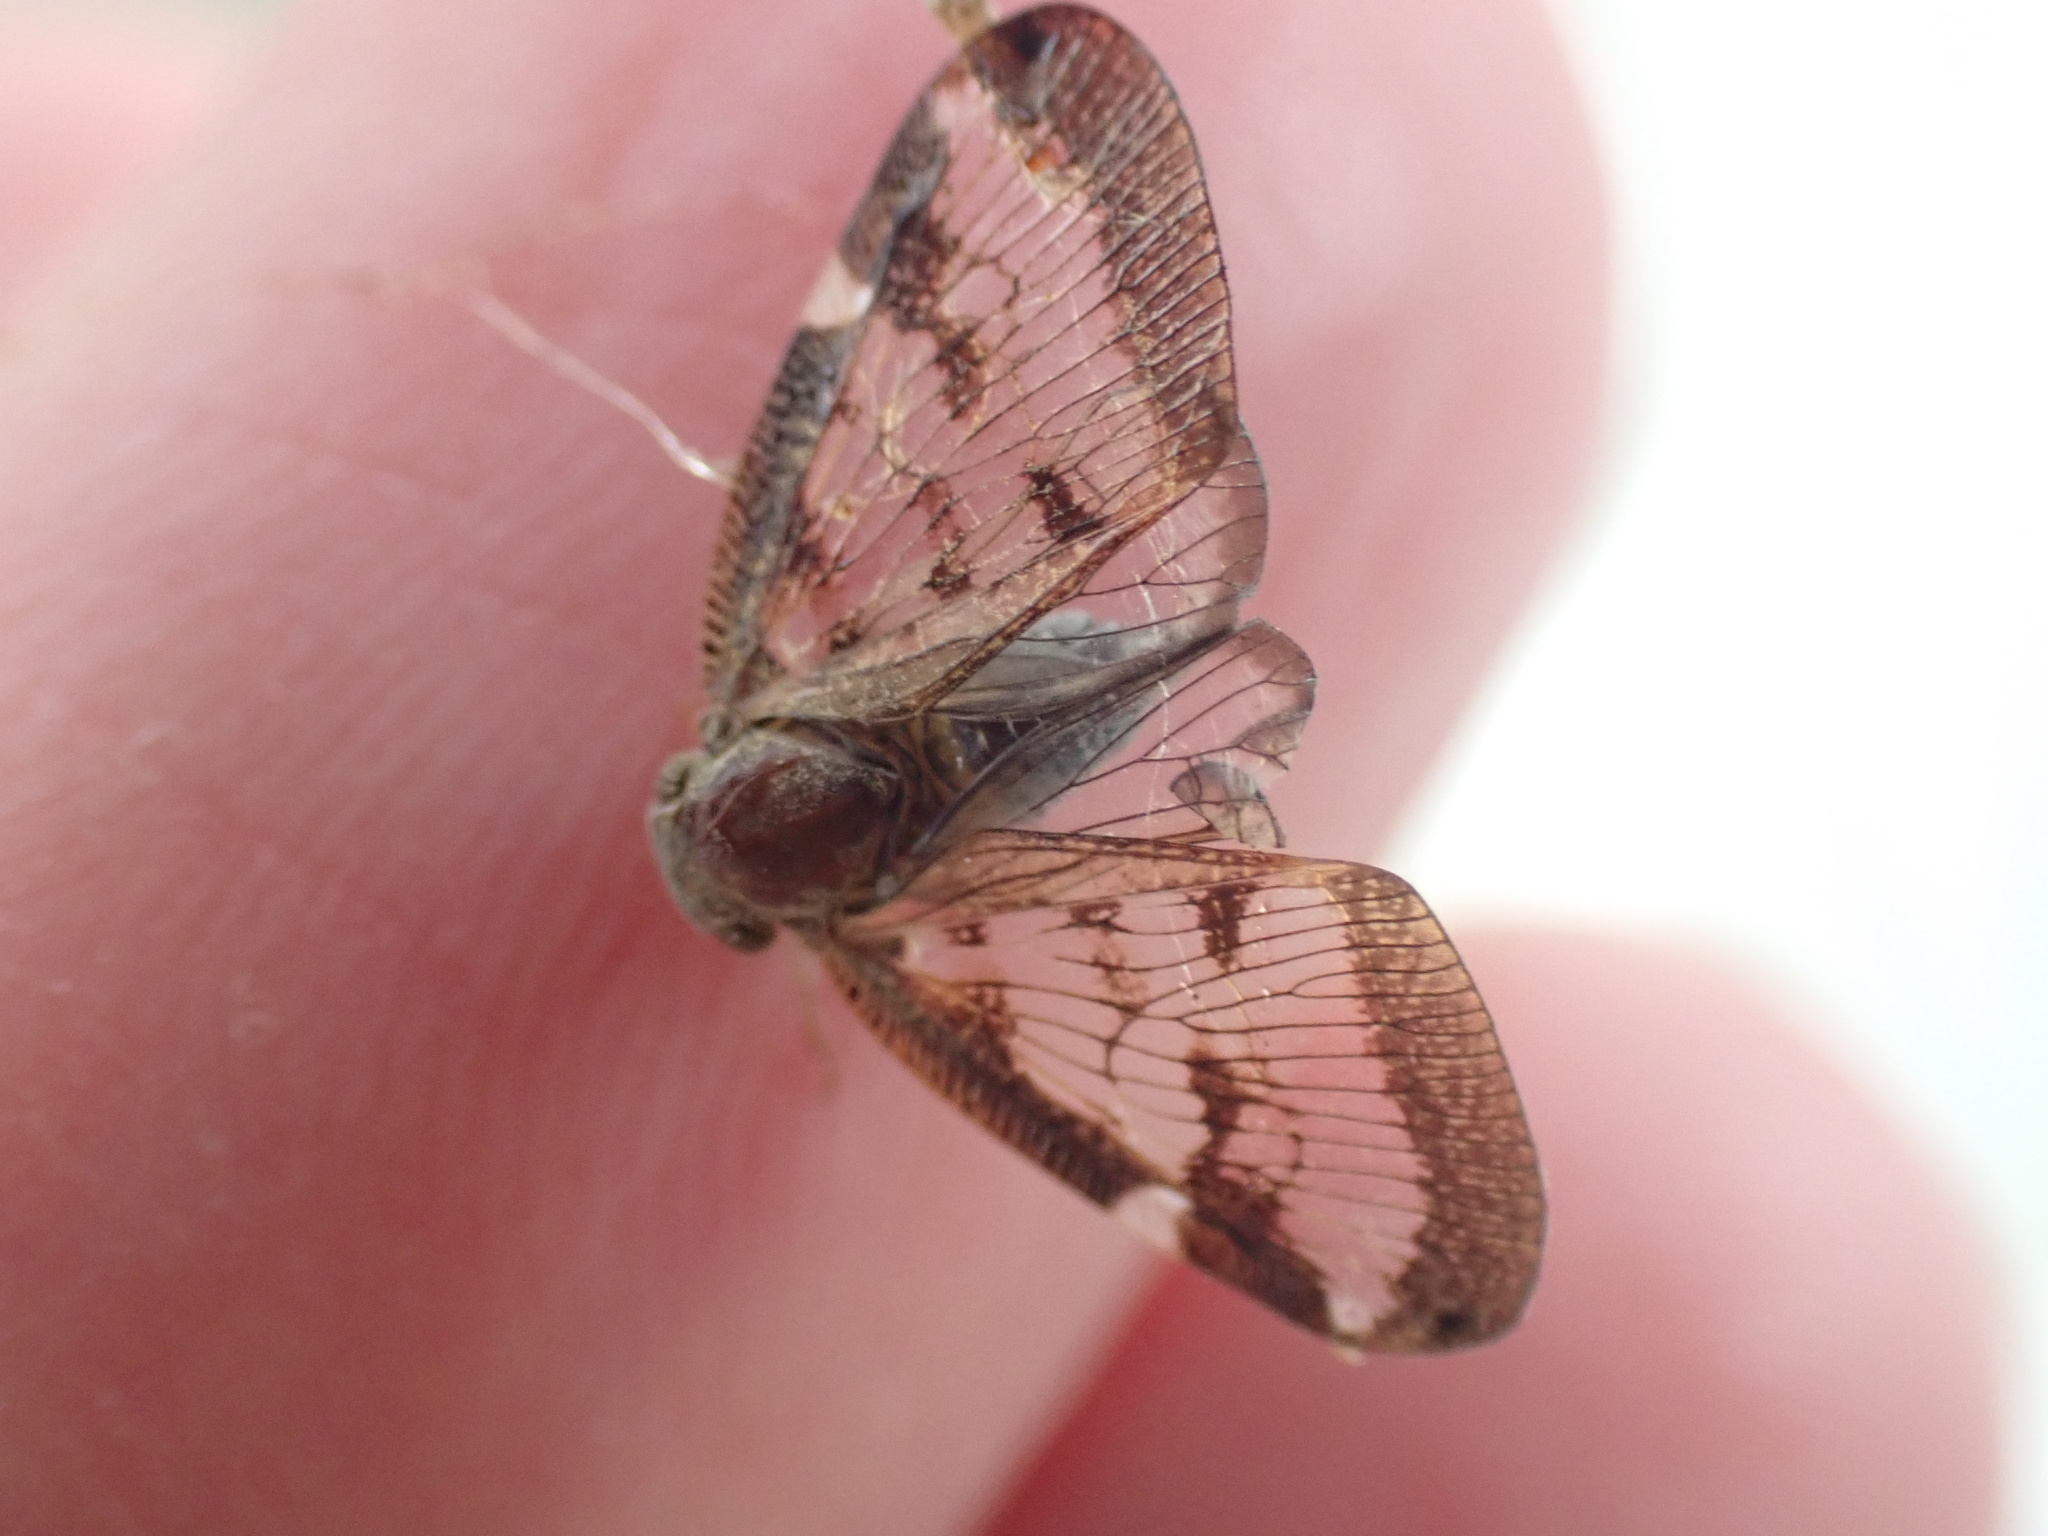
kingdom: Animalia
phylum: Arthropoda
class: Insecta
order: Hemiptera
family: Ricaniidae
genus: Scolypopa
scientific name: Scolypopa australis
